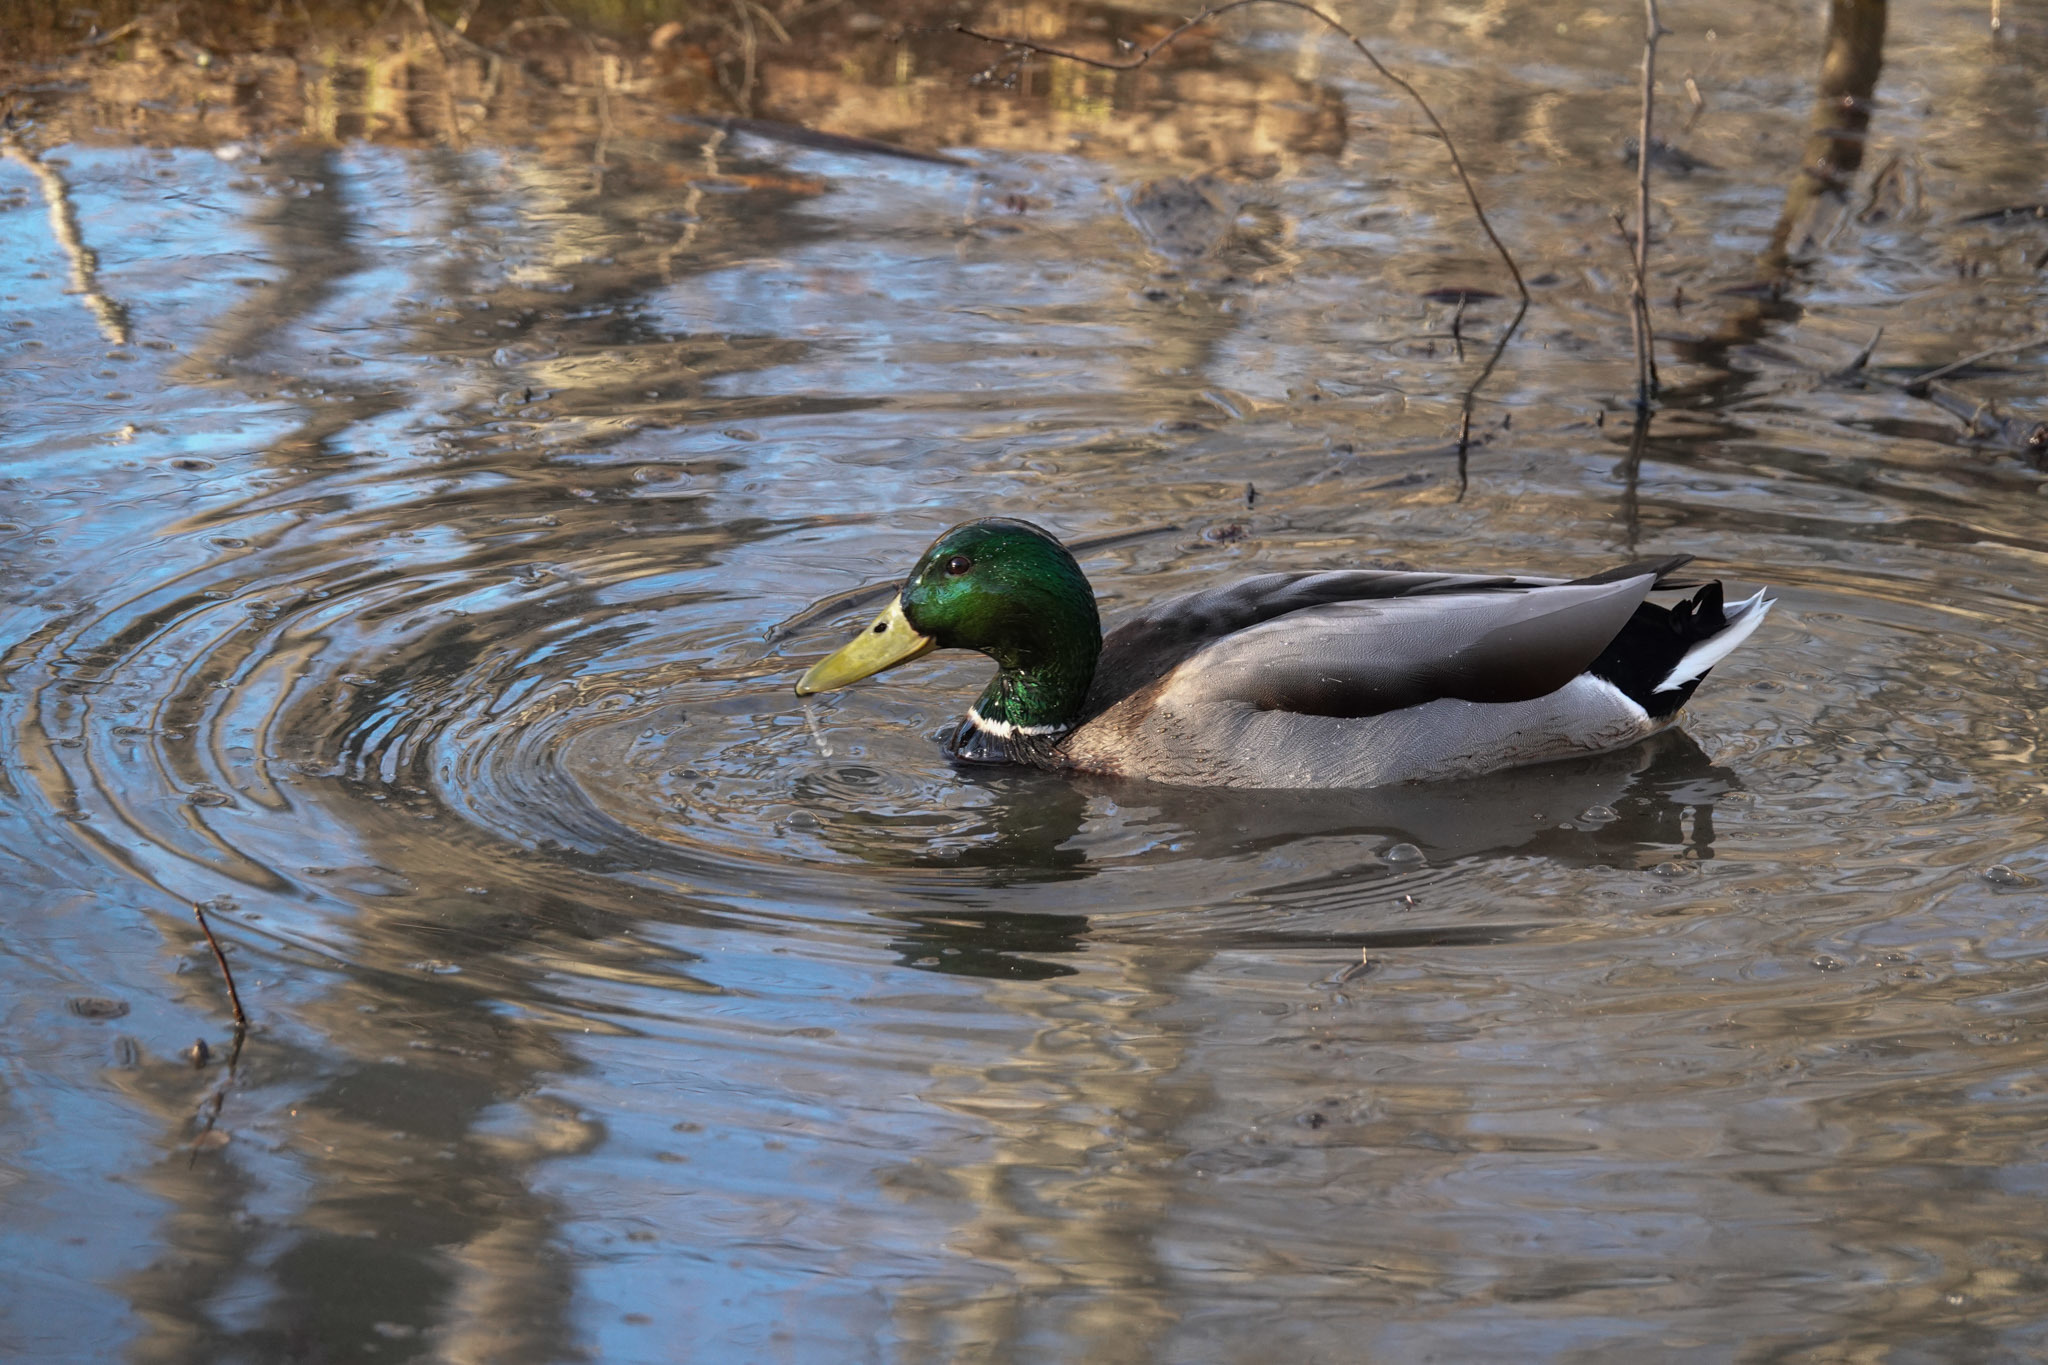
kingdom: Animalia
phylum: Chordata
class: Aves
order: Anseriformes
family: Anatidae
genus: Anas
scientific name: Anas platyrhynchos
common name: Mallard
